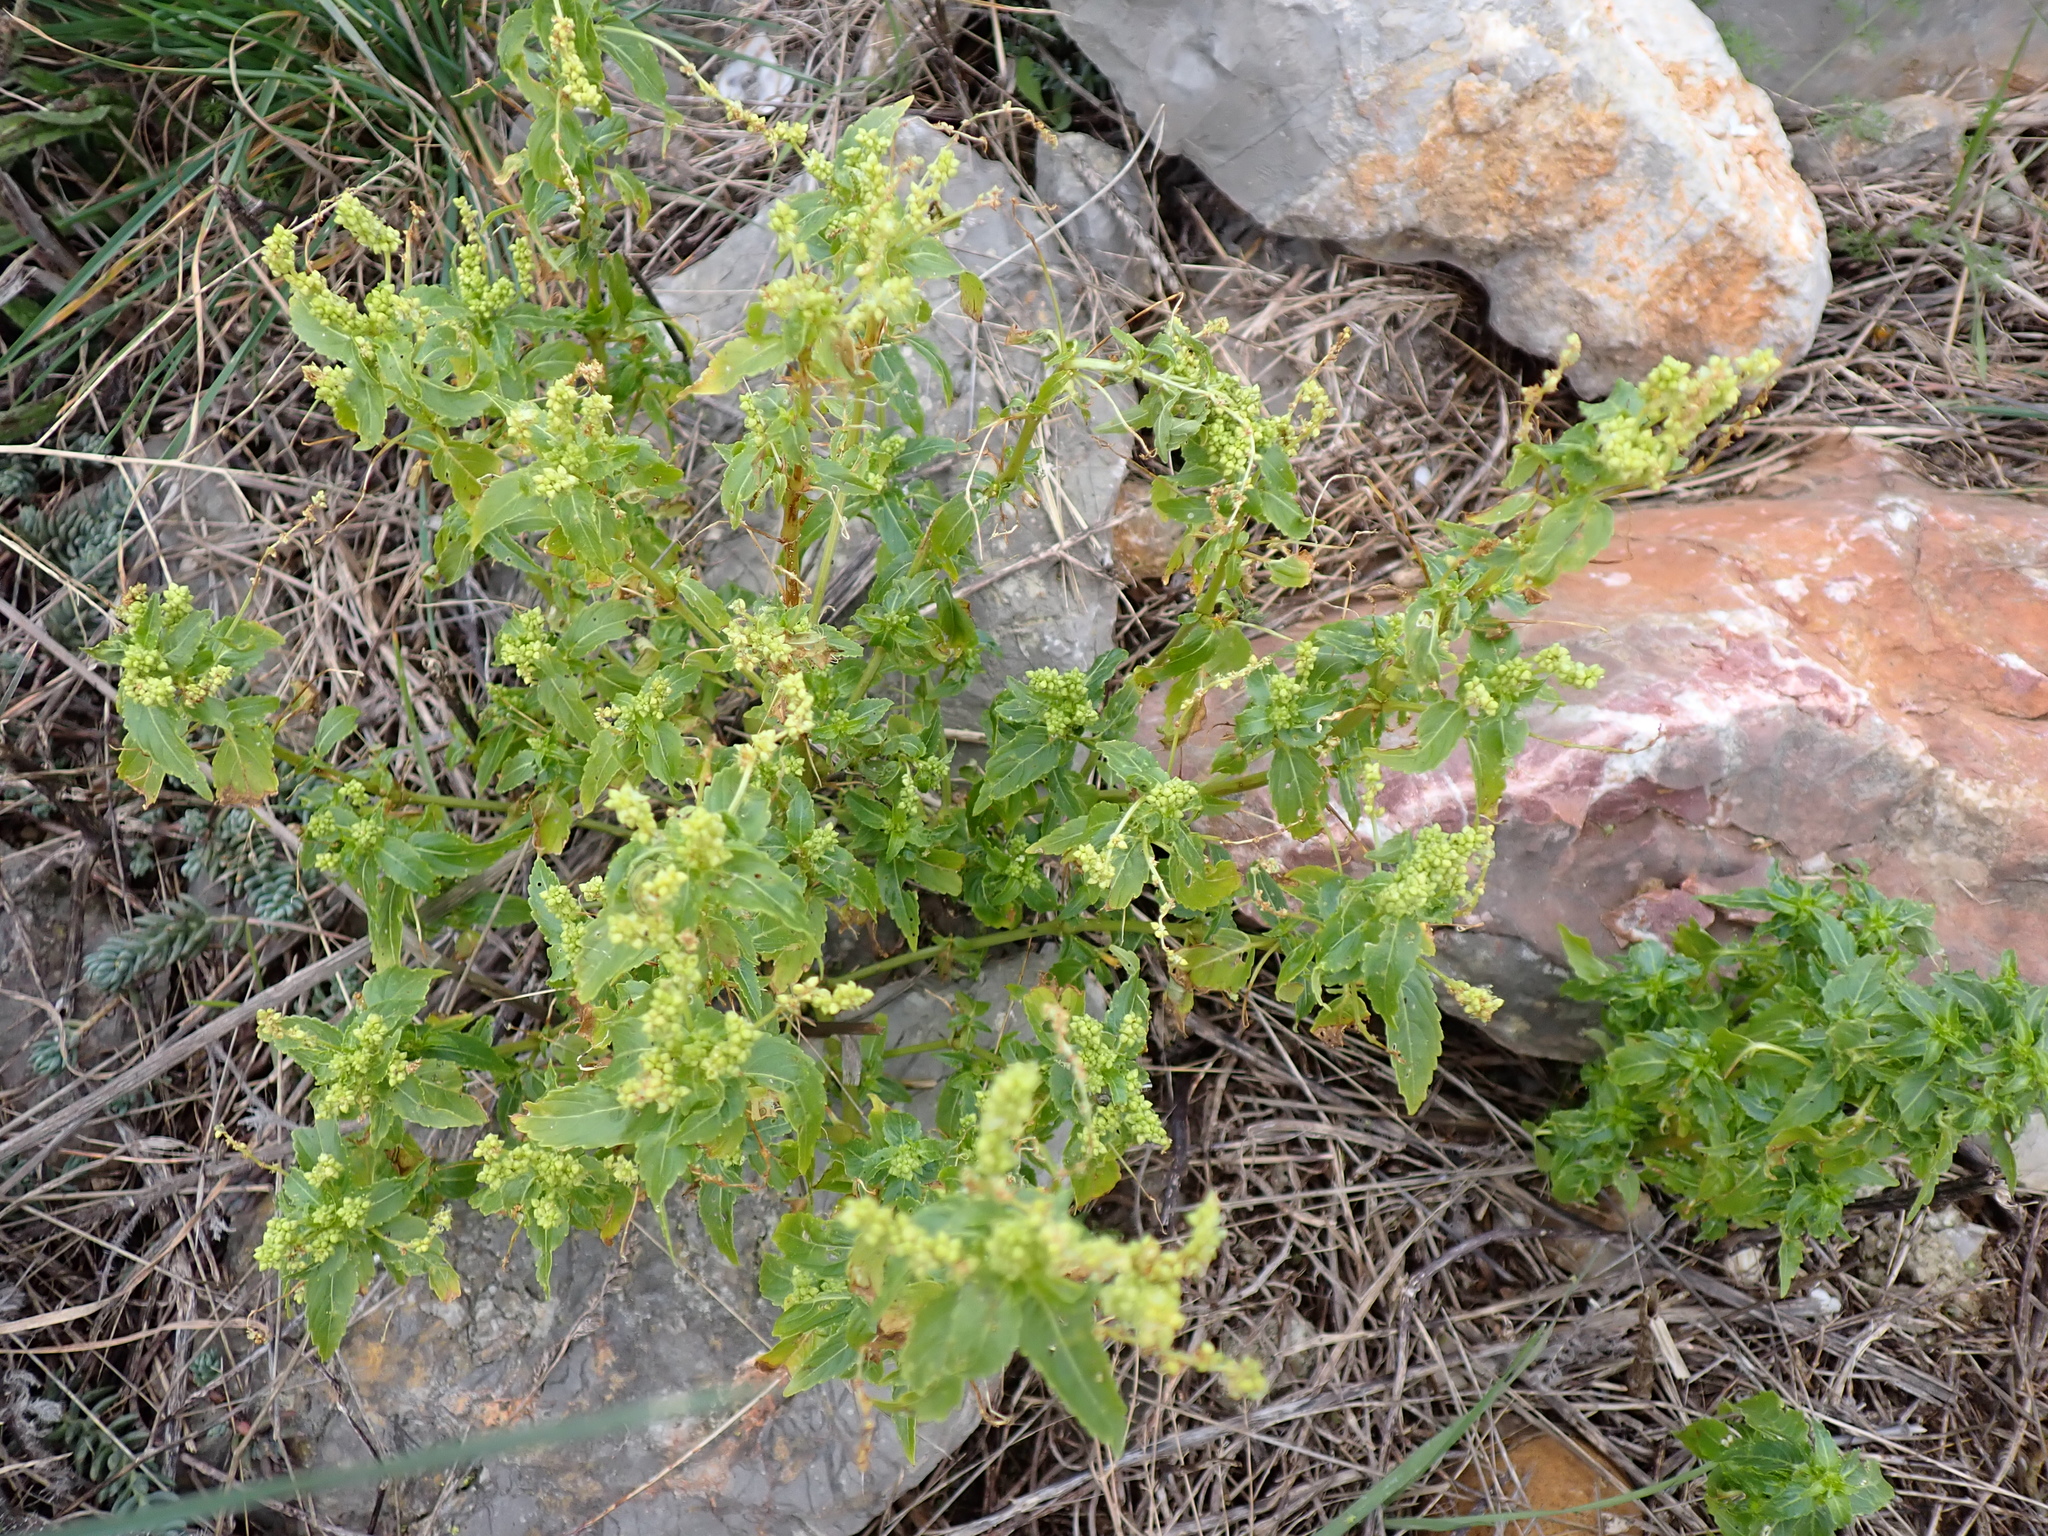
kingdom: Plantae
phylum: Tracheophyta
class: Magnoliopsida
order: Malpighiales
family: Euphorbiaceae
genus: Mercurialis
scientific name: Mercurialis annua
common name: Annual mercury
